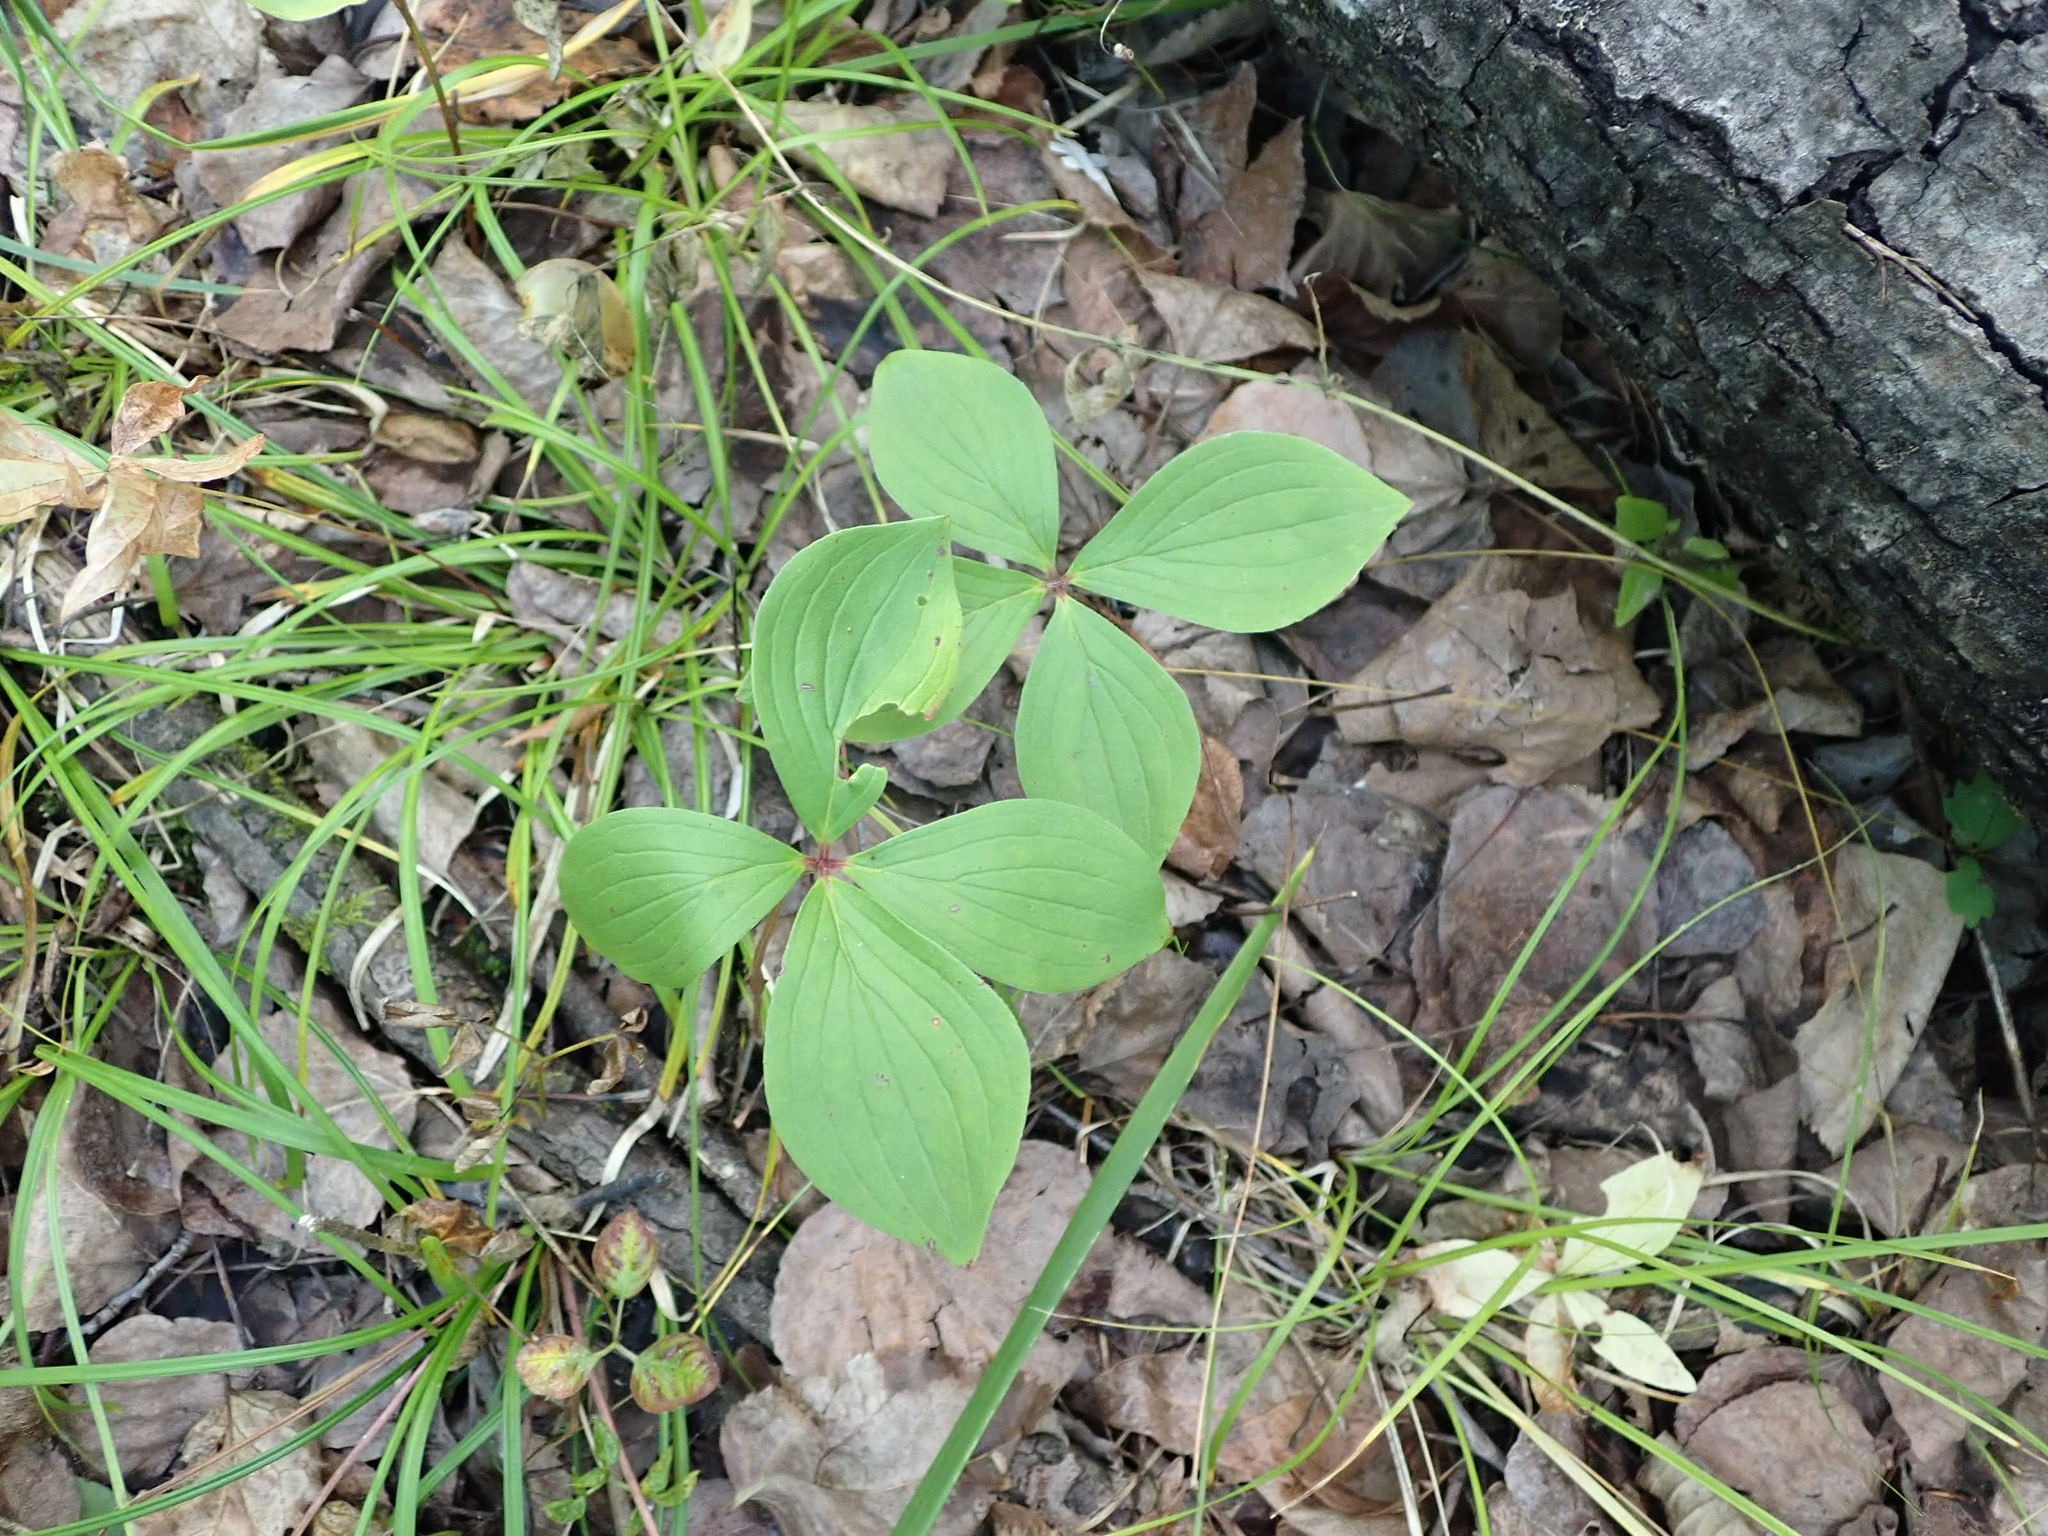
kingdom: Plantae
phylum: Tracheophyta
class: Magnoliopsida
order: Cornales
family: Cornaceae
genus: Cornus
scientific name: Cornus canadensis
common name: Creeping dogwood
